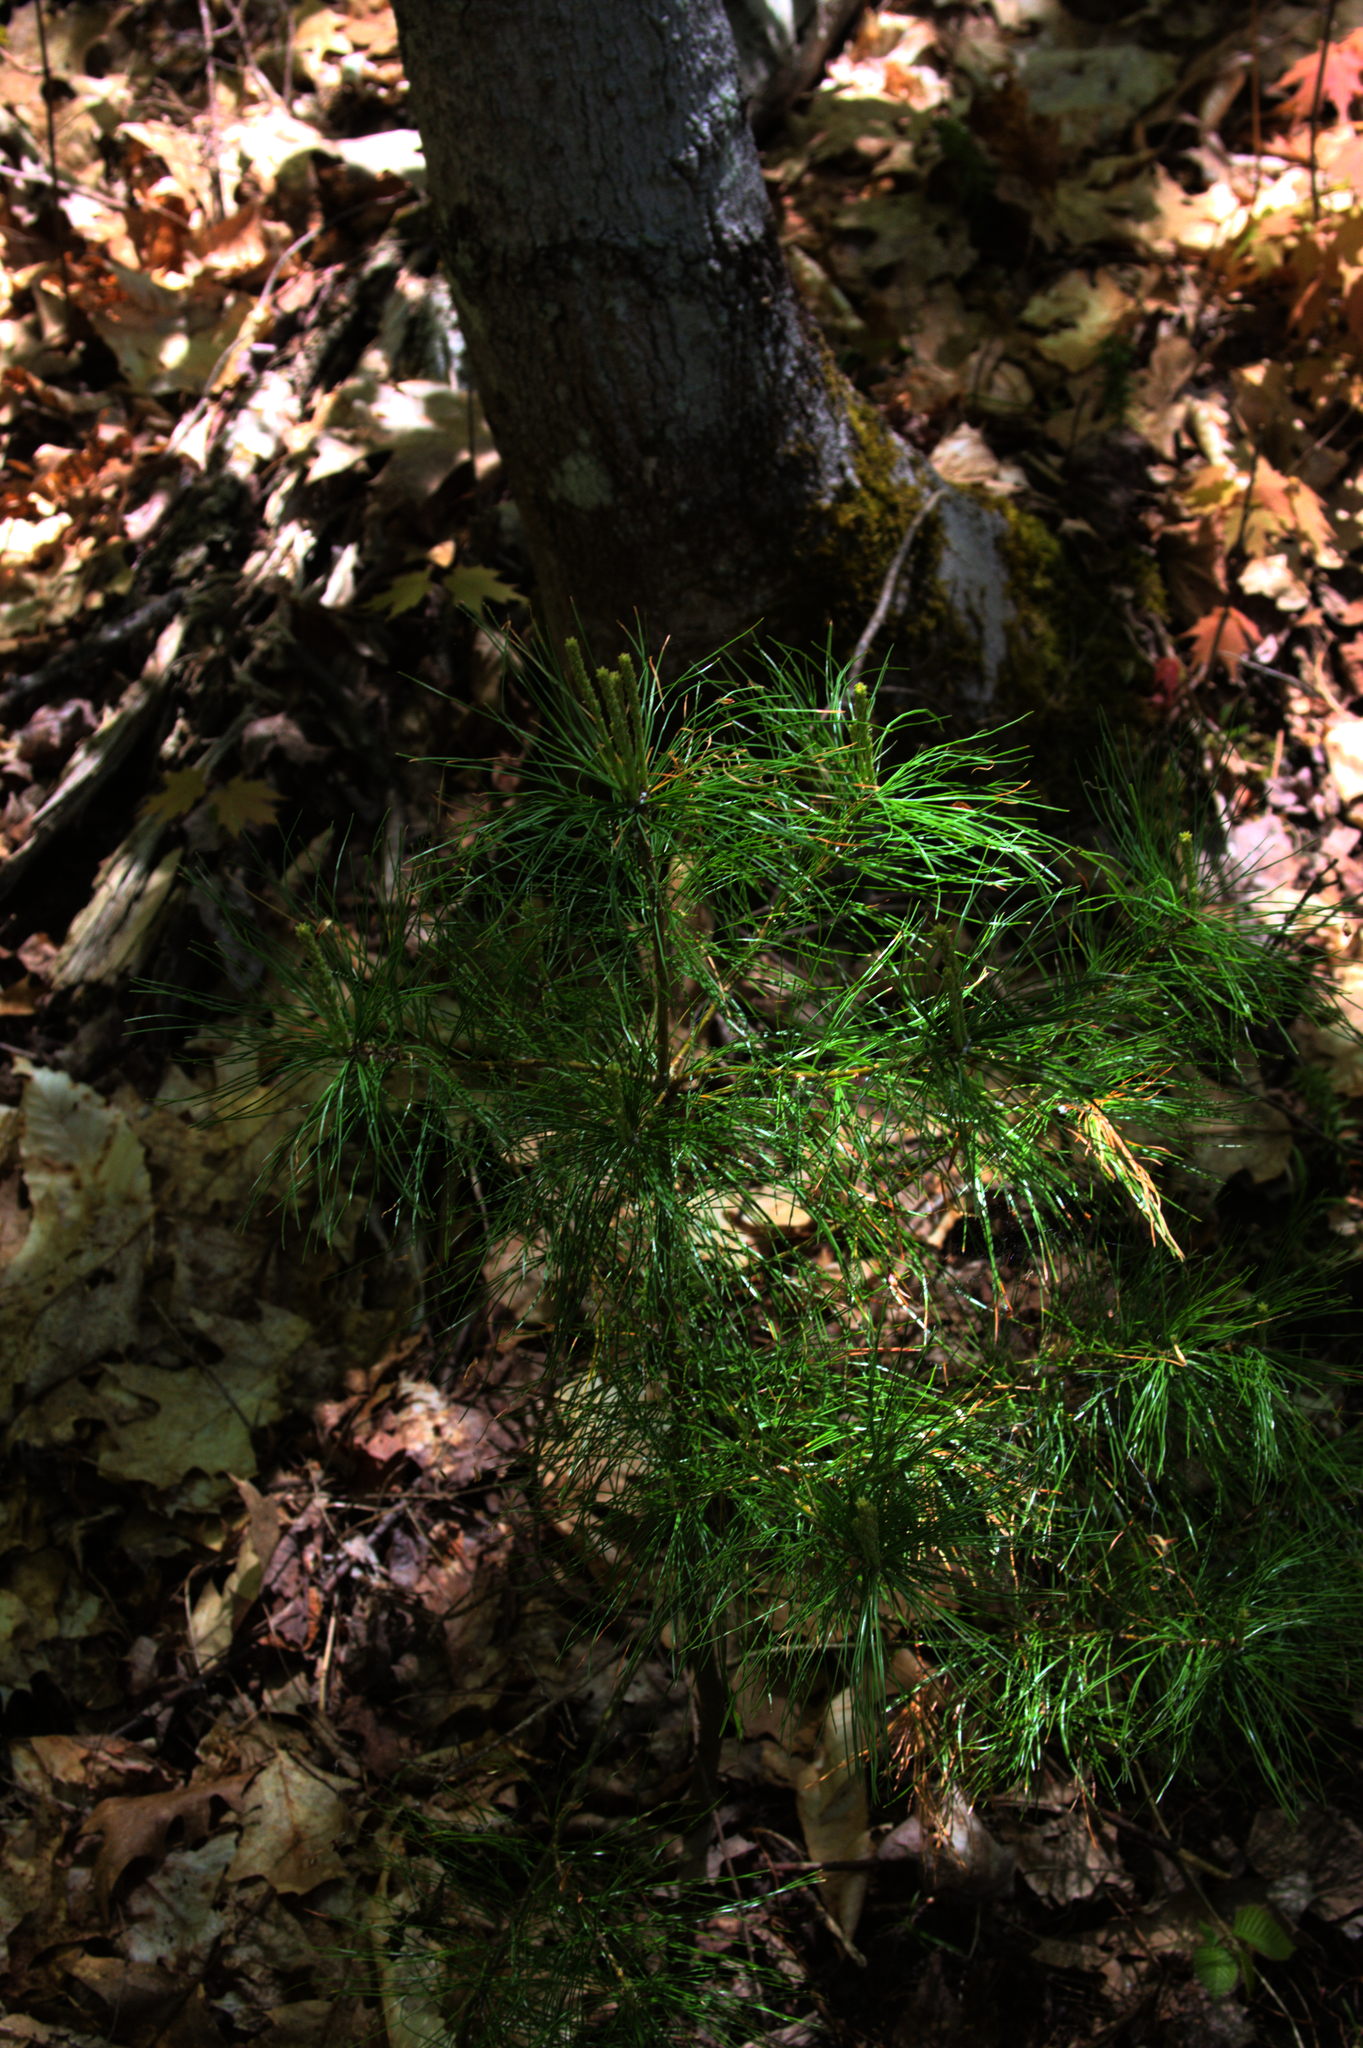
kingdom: Plantae
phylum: Tracheophyta
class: Pinopsida
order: Pinales
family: Pinaceae
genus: Pinus
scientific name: Pinus strobus
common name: Weymouth pine
